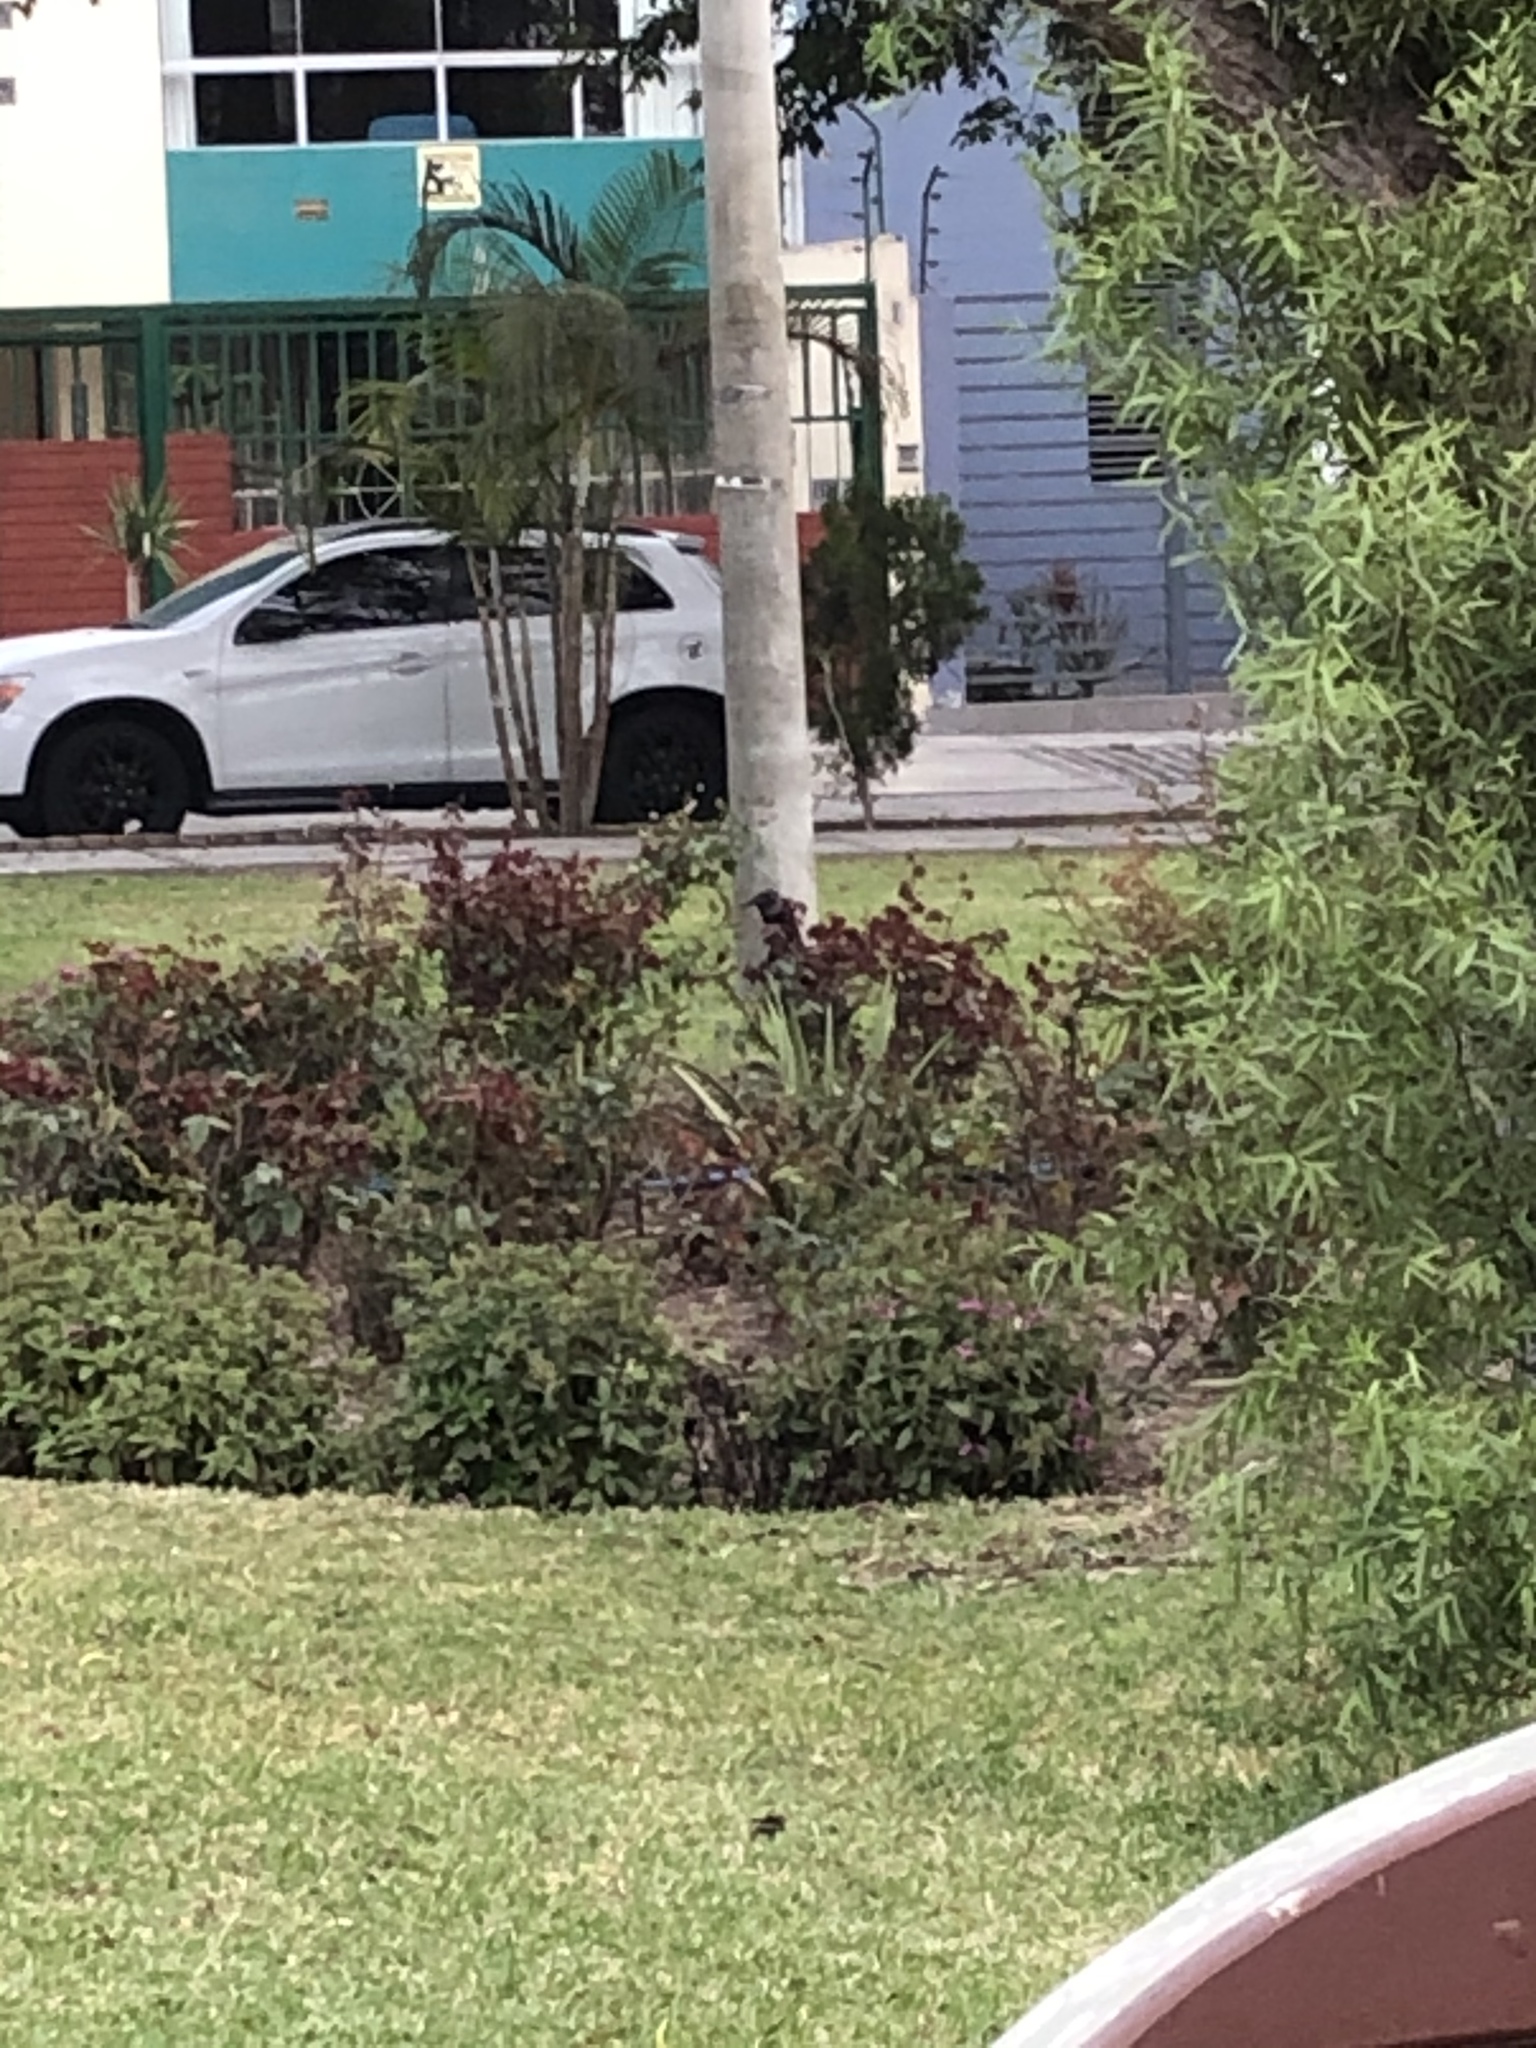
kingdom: Animalia
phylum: Chordata
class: Aves
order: Accipitriformes
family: Cathartidae
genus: Coragyps
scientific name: Coragyps atratus
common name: Black vulture
